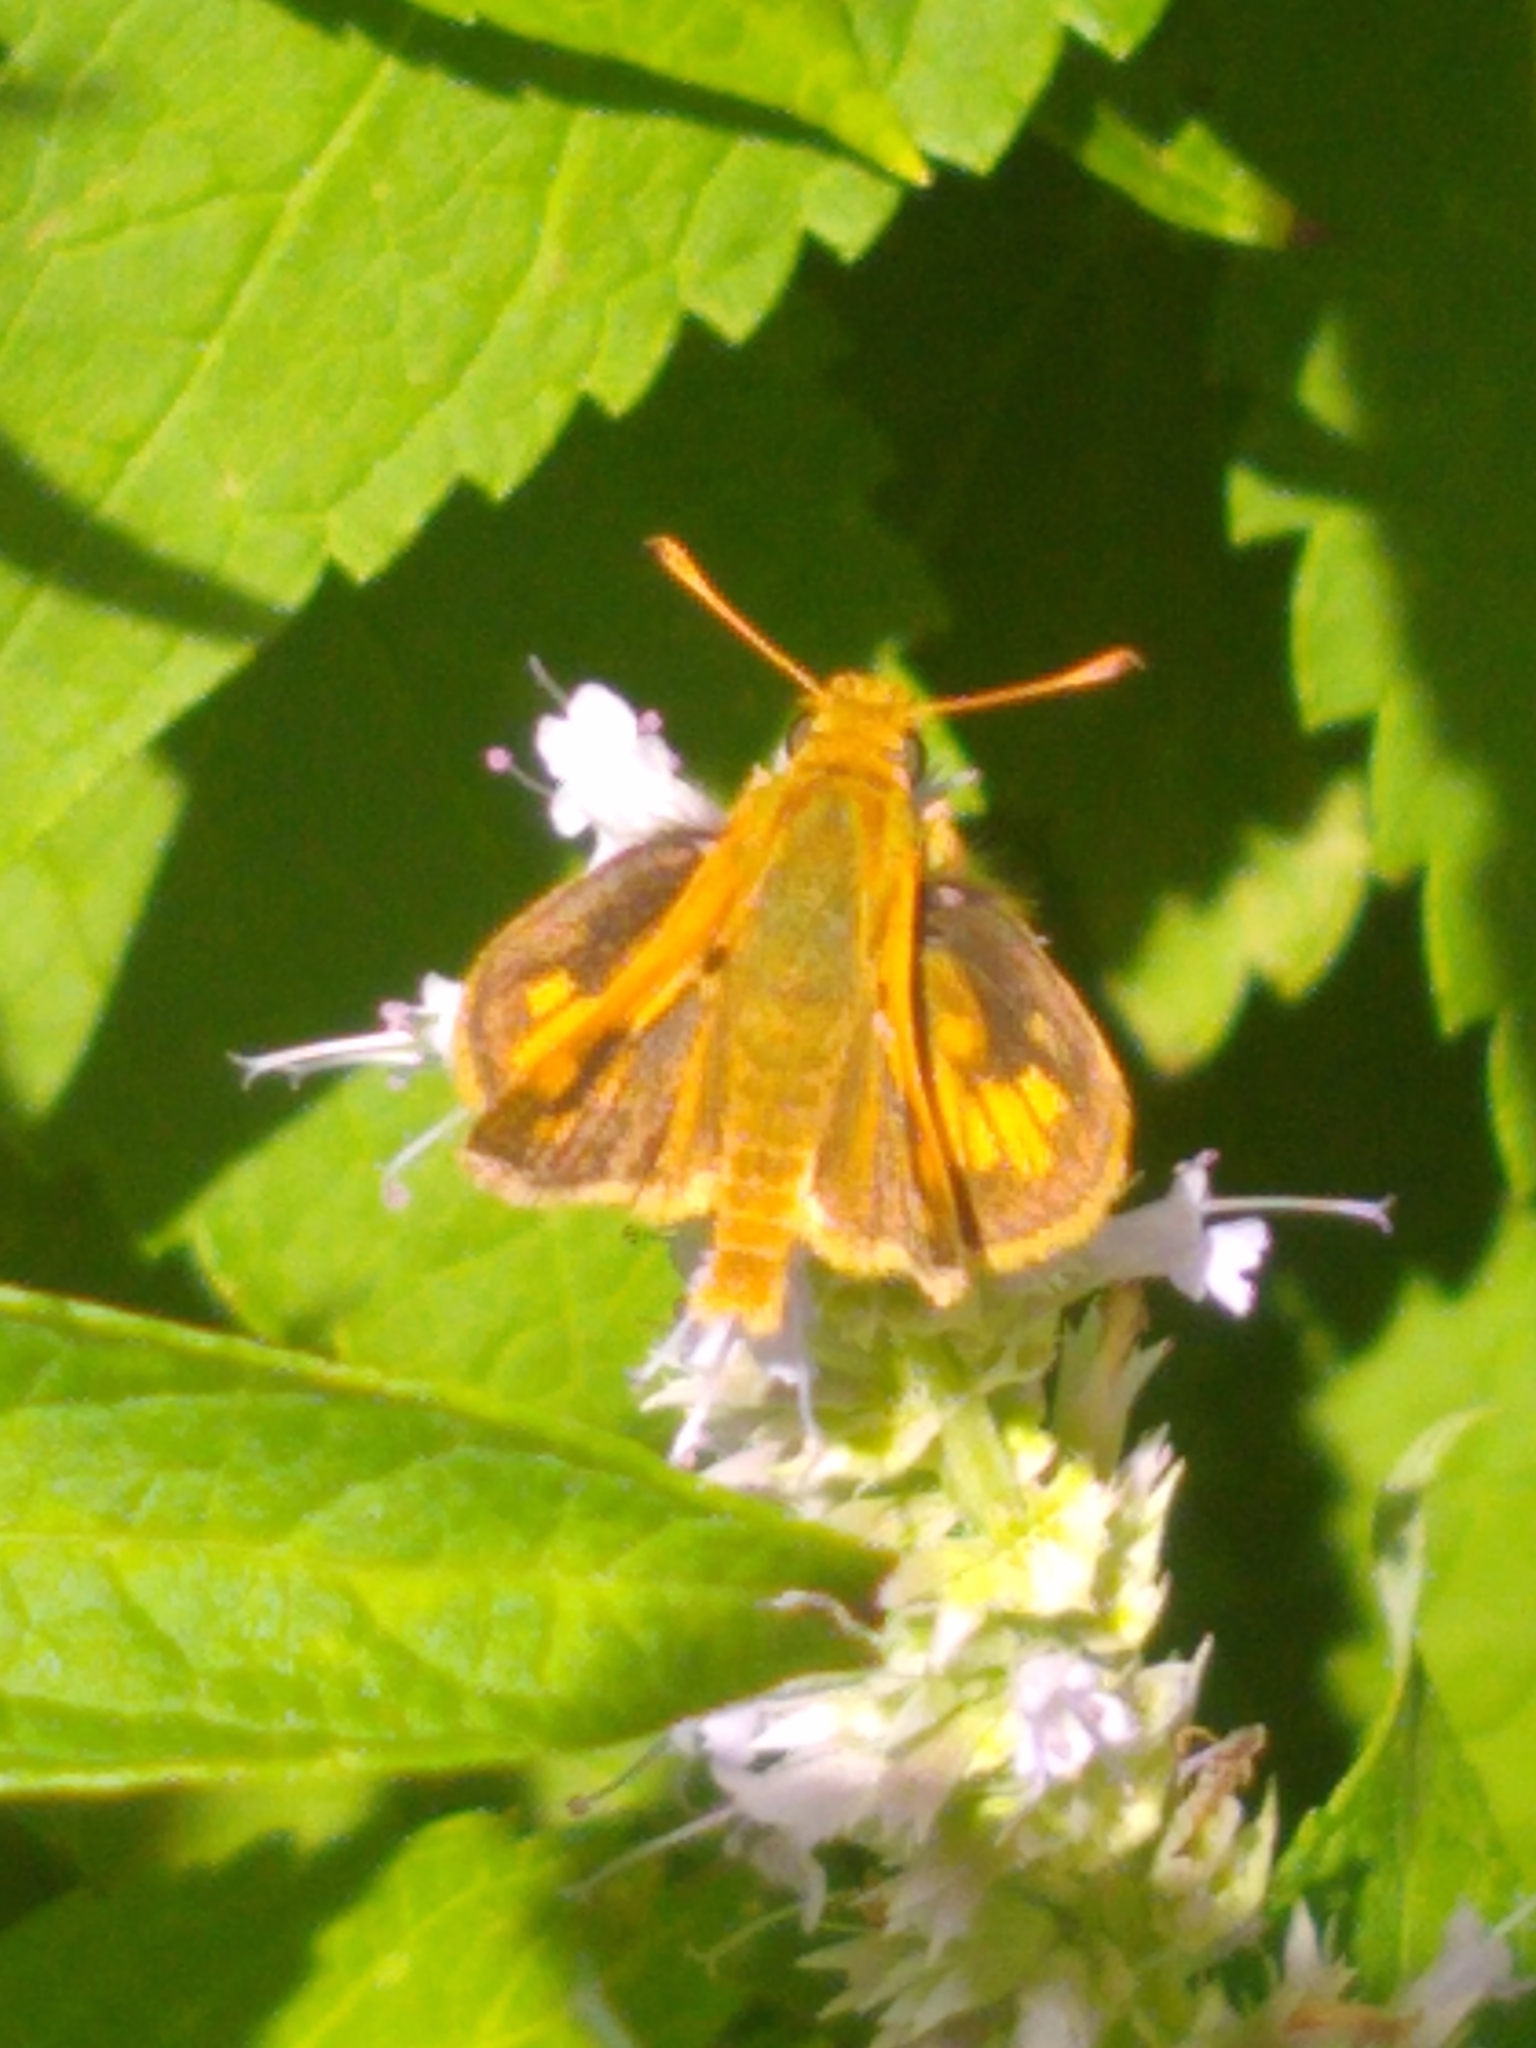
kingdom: Animalia
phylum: Arthropoda
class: Insecta
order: Lepidoptera
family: Hesperiidae
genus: Polites
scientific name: Polites coras
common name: Peck's skipper
